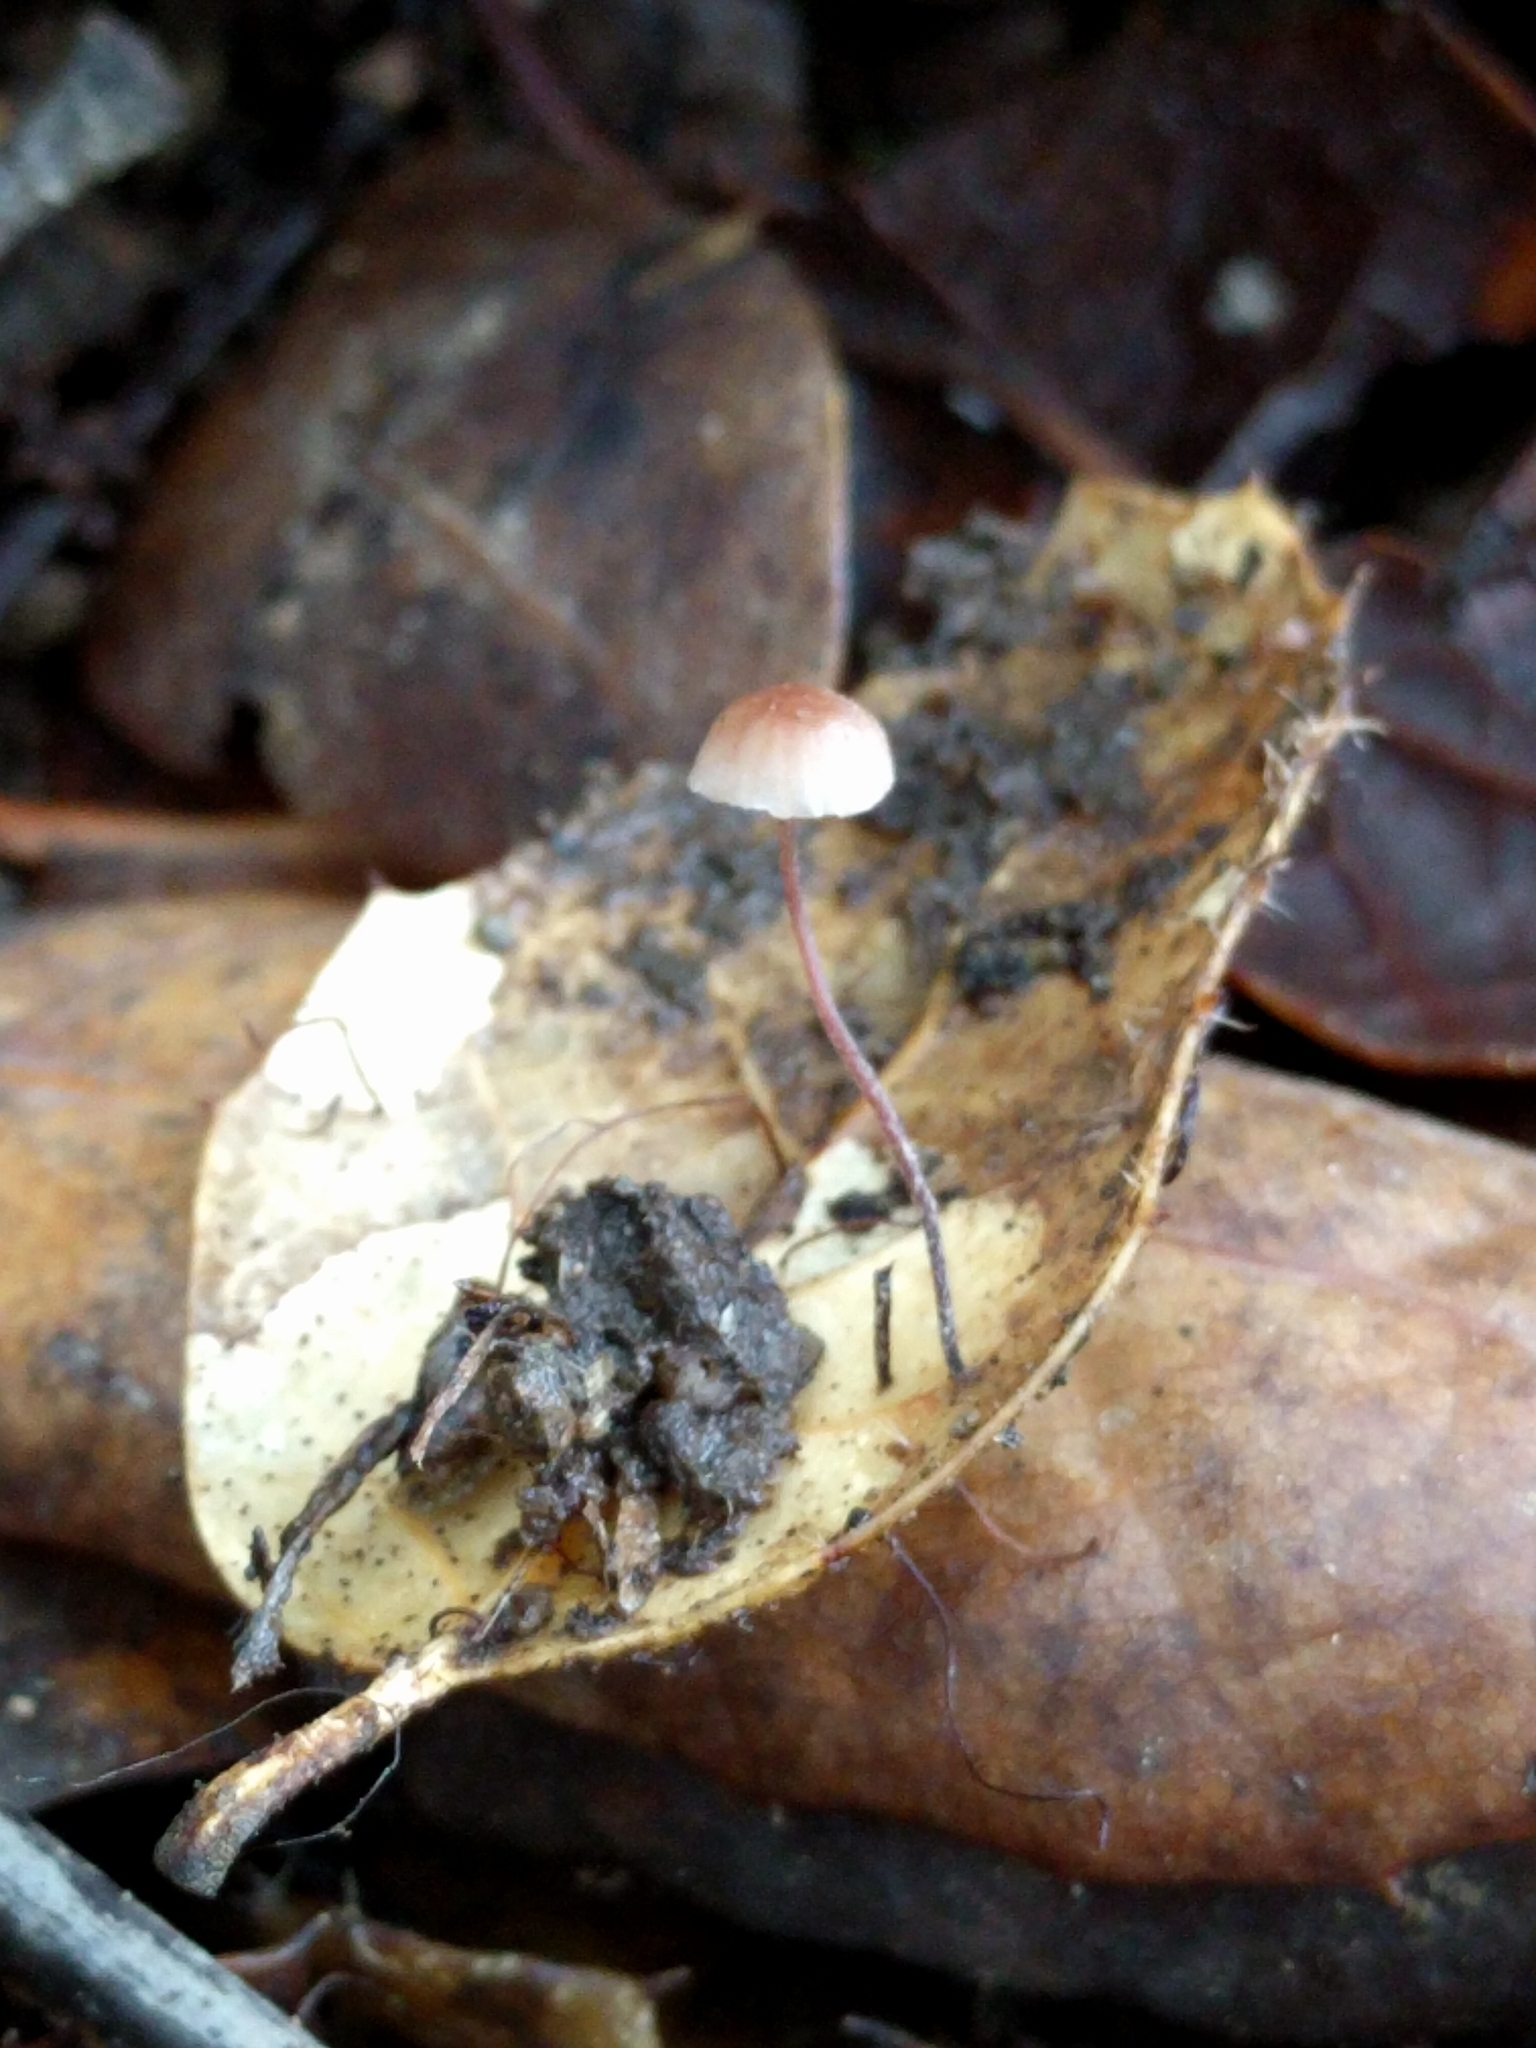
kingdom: Fungi
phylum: Basidiomycota
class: Agaricomycetes
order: Agaricales
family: Omphalotaceae
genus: Collybiopsis
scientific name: Collybiopsis quercophila
